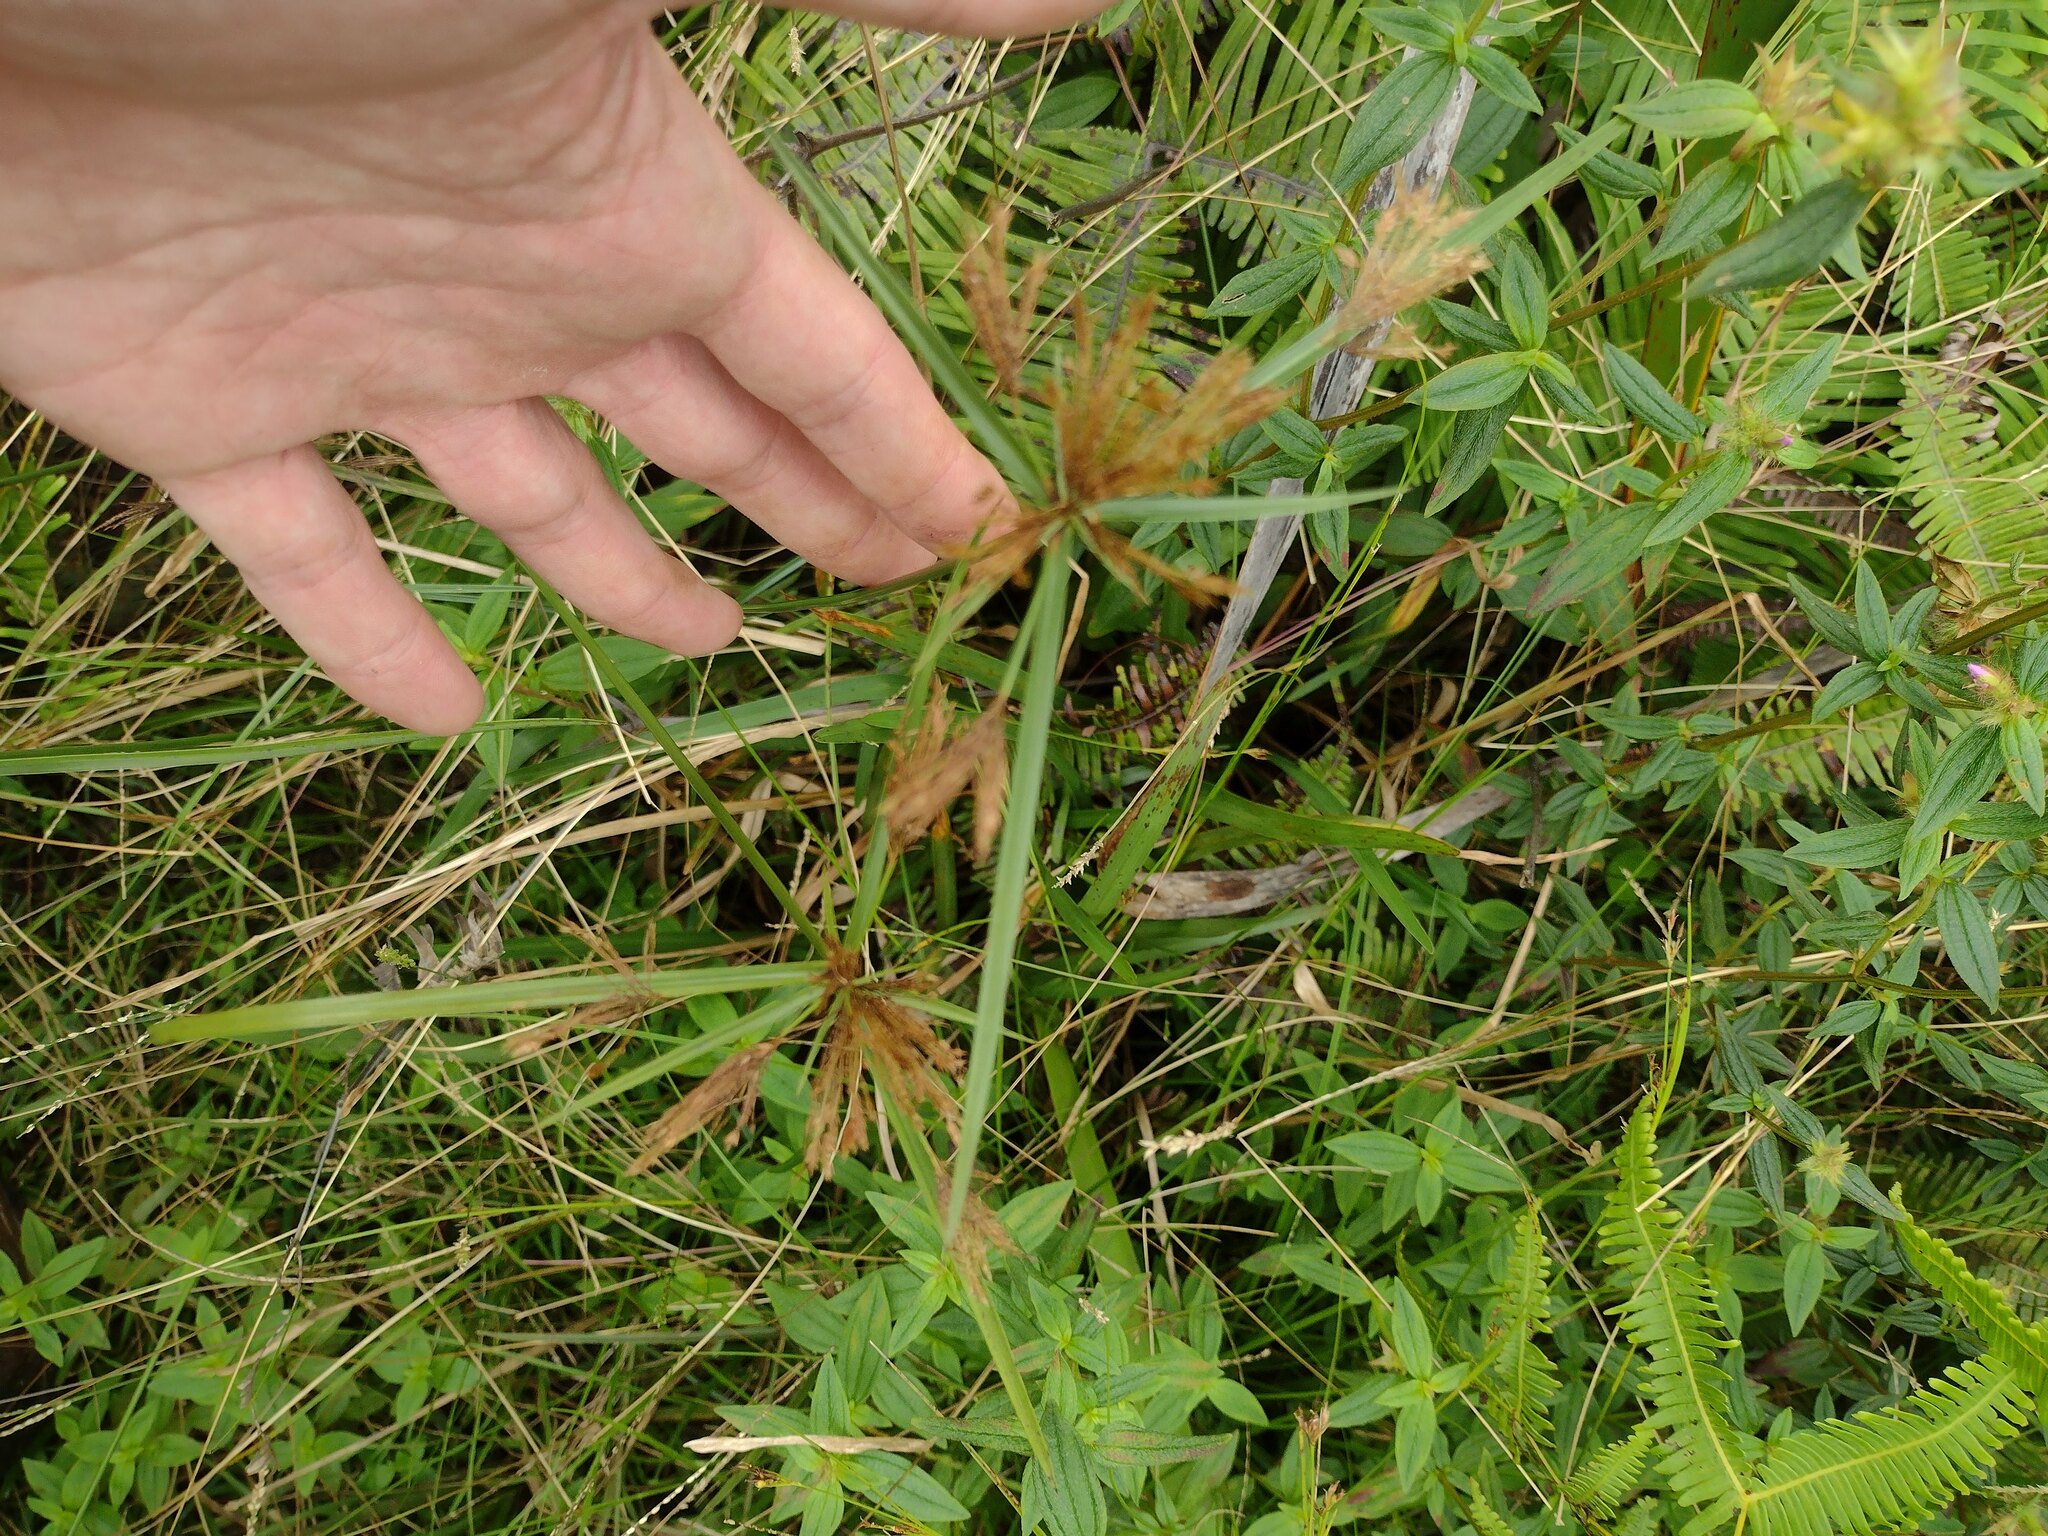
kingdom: Plantae
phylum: Tracheophyta
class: Liliopsida
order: Poales
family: Cyperaceae
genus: Cyperus
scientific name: Cyperus polystachyos
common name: Bunchy flat sedge
